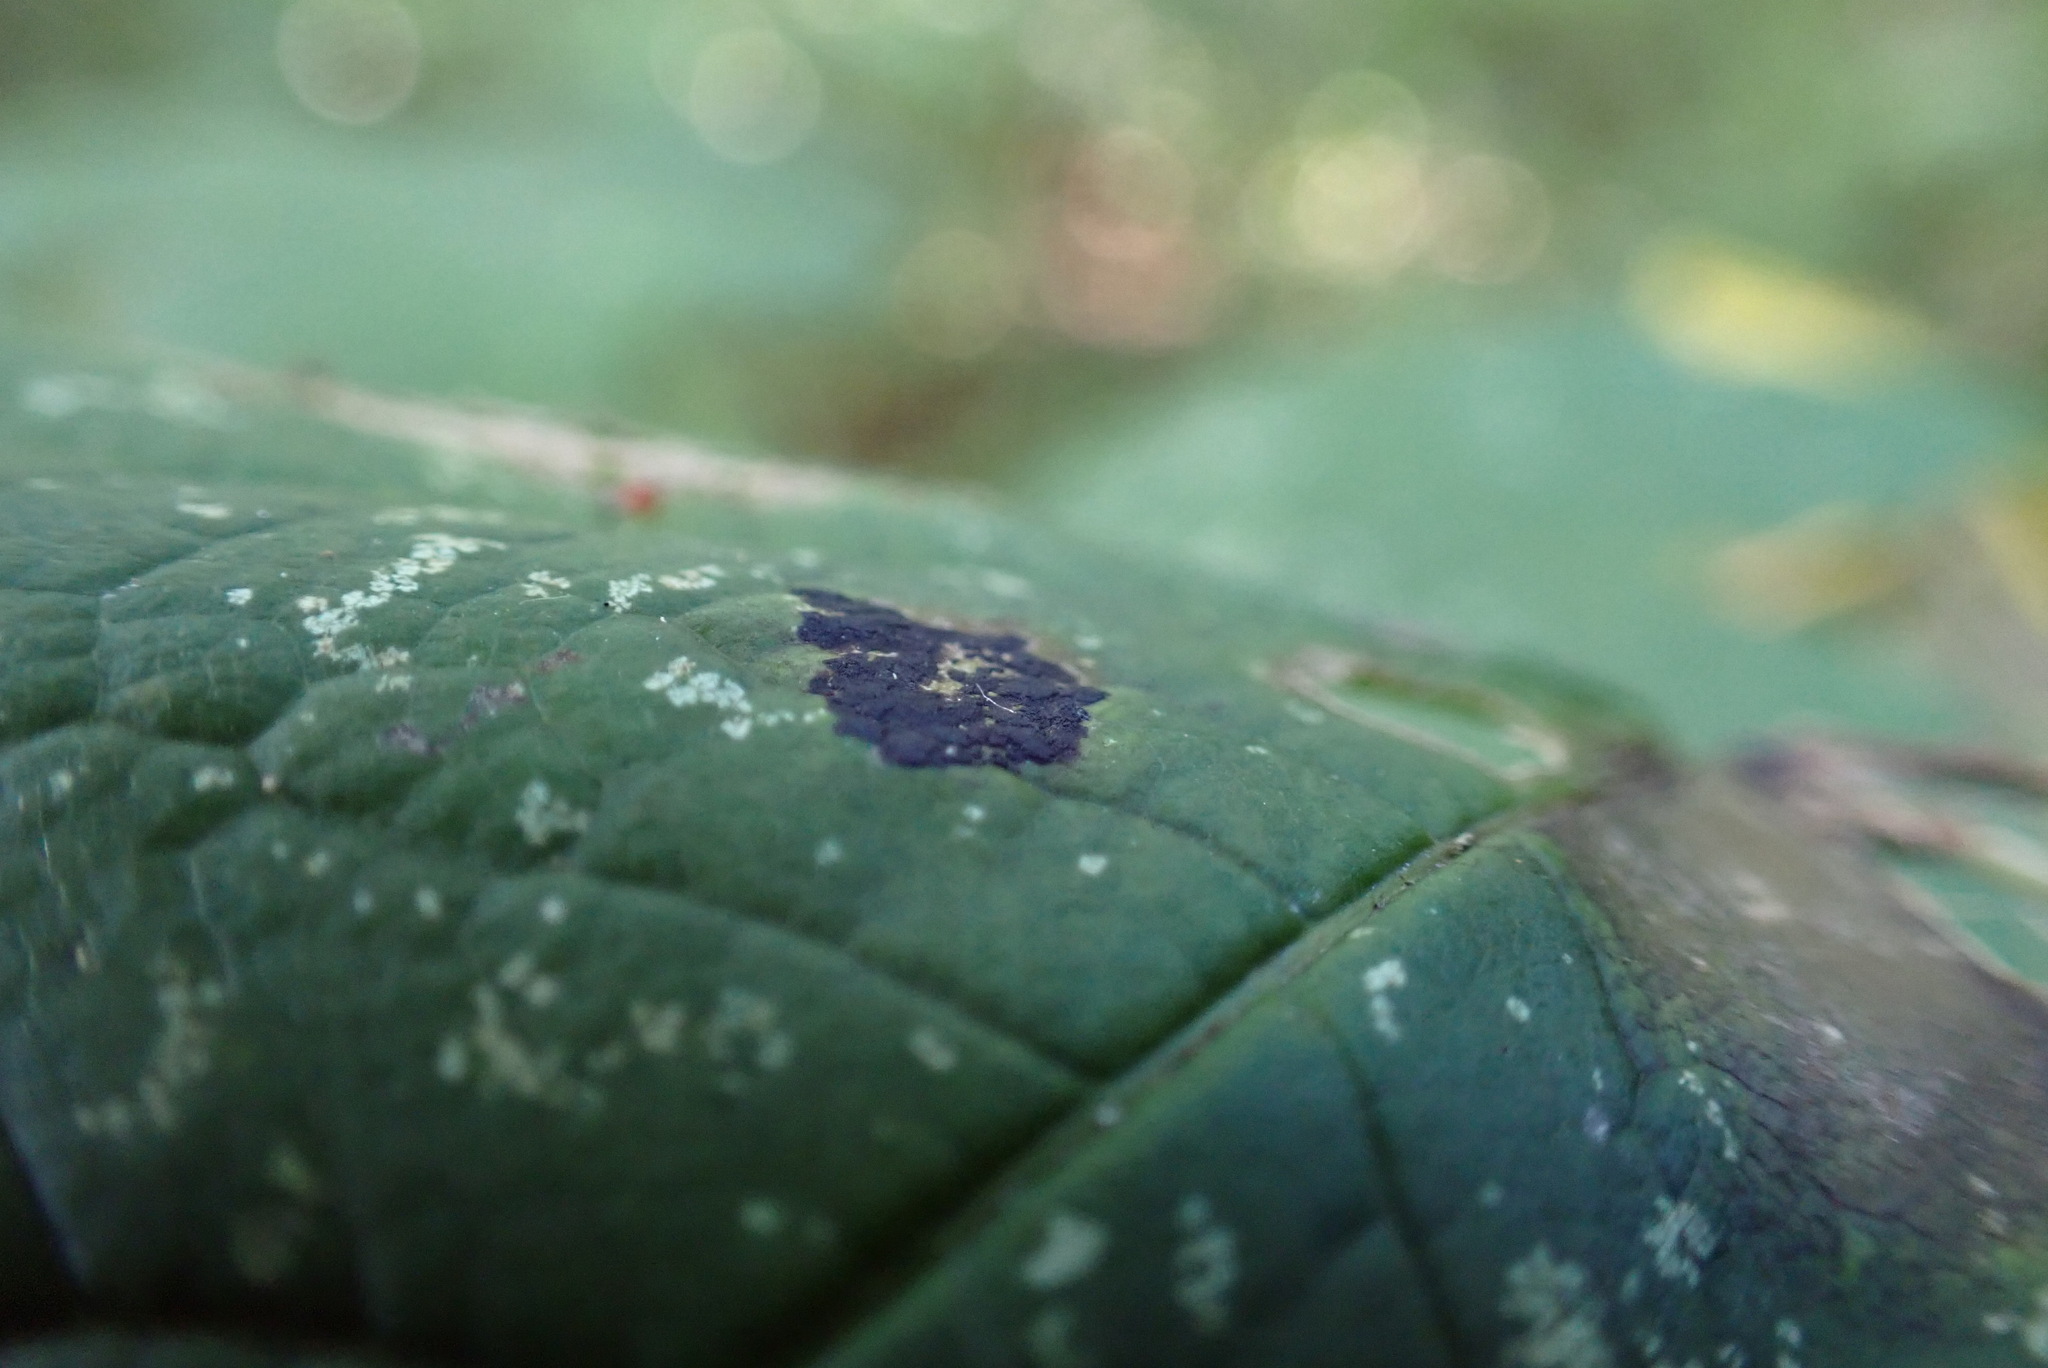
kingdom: Fungi
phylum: Ascomycota
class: Leotiomycetes
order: Rhytismatales
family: Rhytismataceae
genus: Rhytisma
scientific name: Rhytisma acerinum
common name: European tar spot
